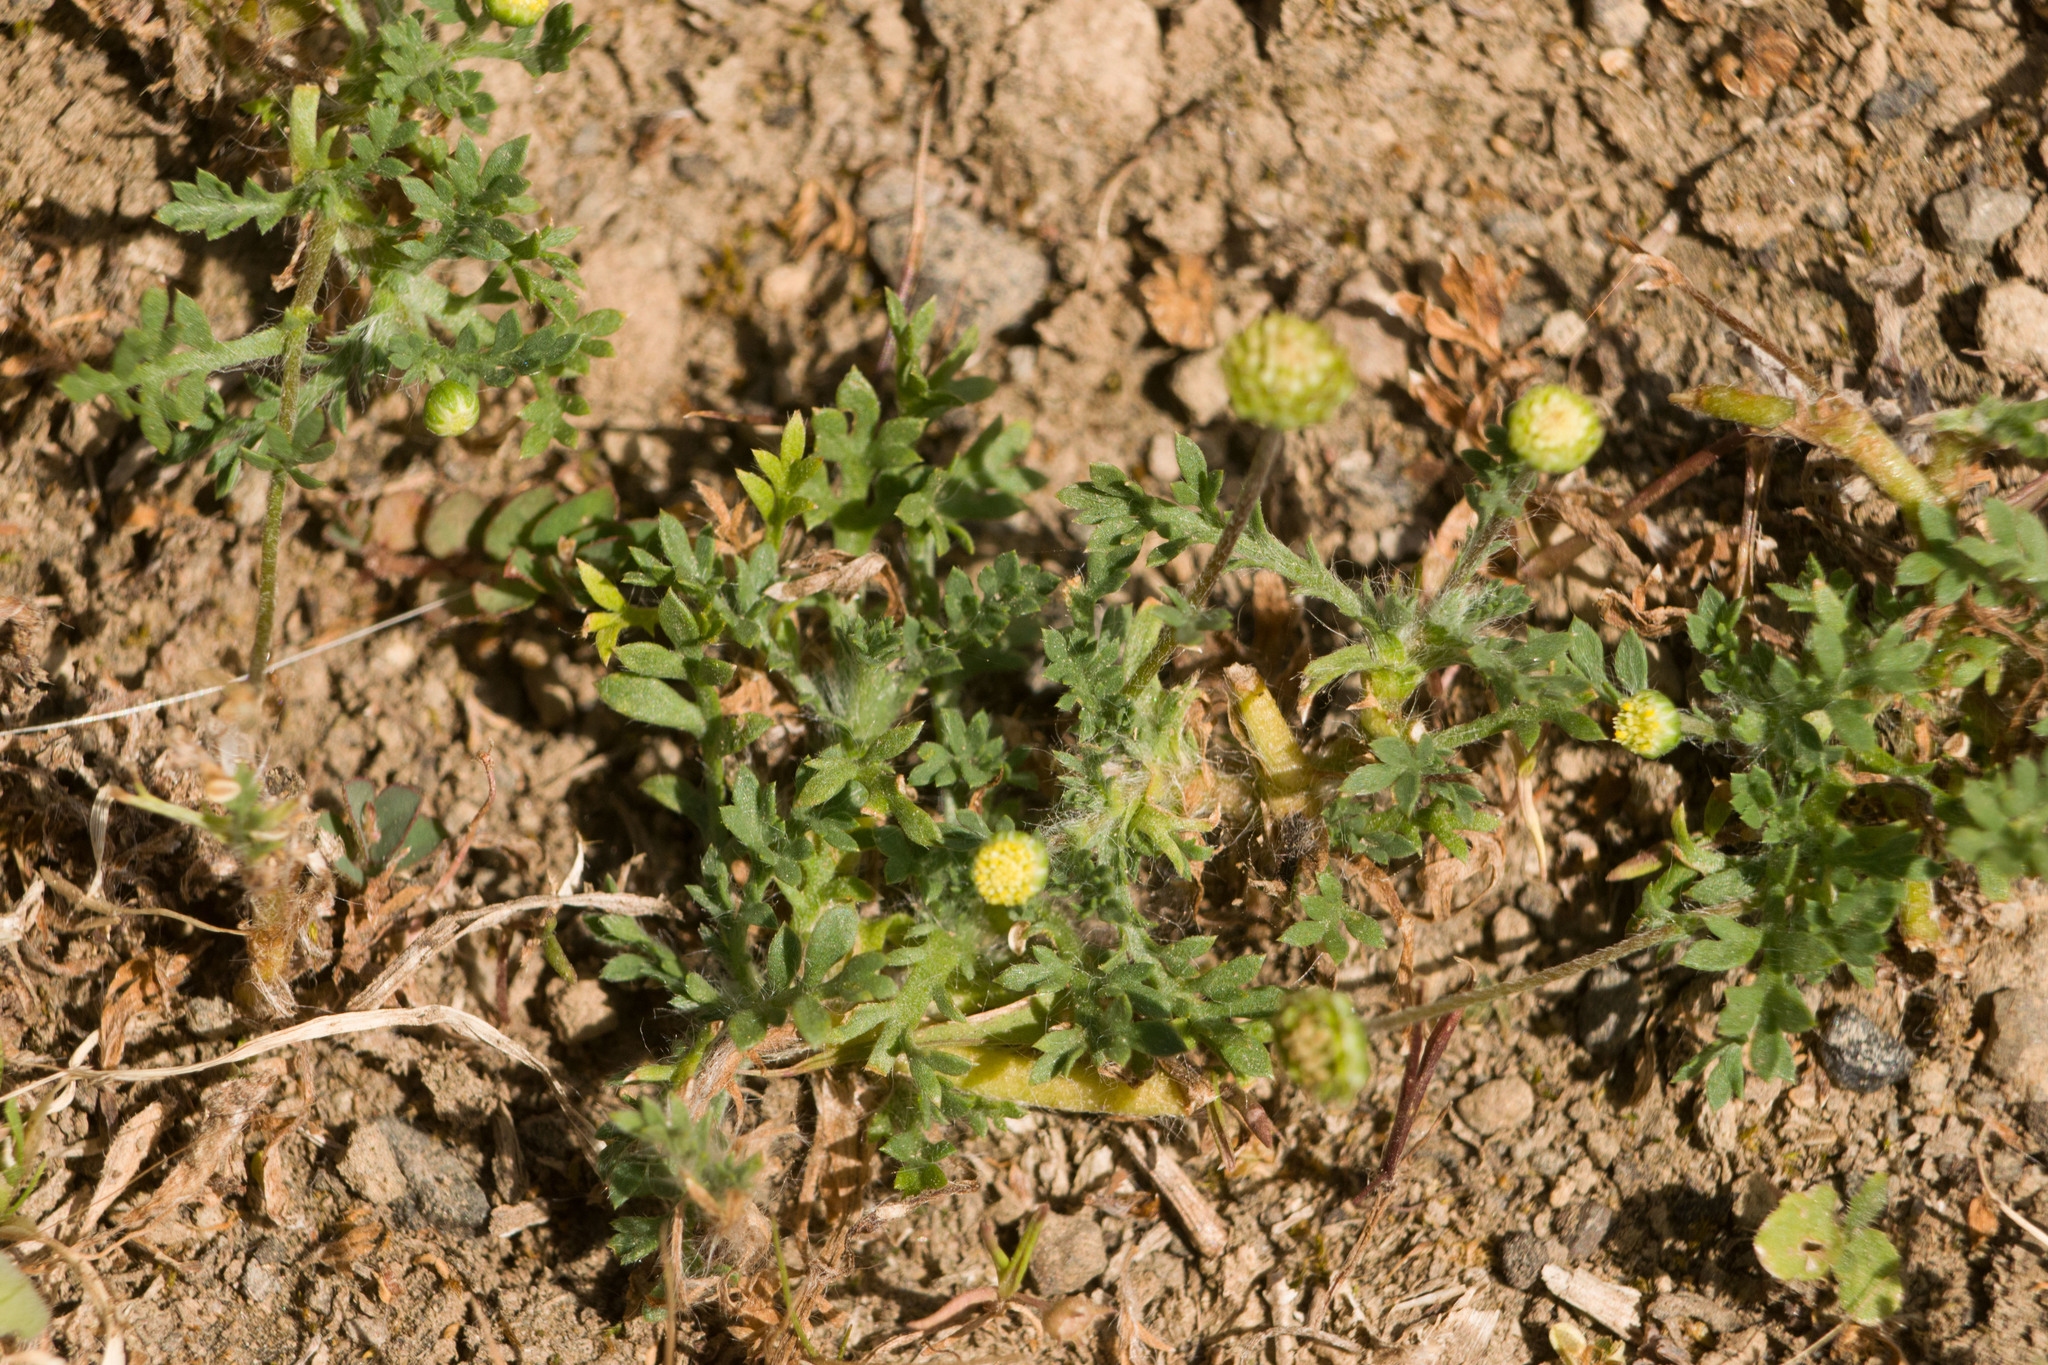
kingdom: Plantae
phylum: Tracheophyta
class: Magnoliopsida
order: Asterales
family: Asteraceae
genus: Cotula
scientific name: Cotula australis
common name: Australian waterbuttons
